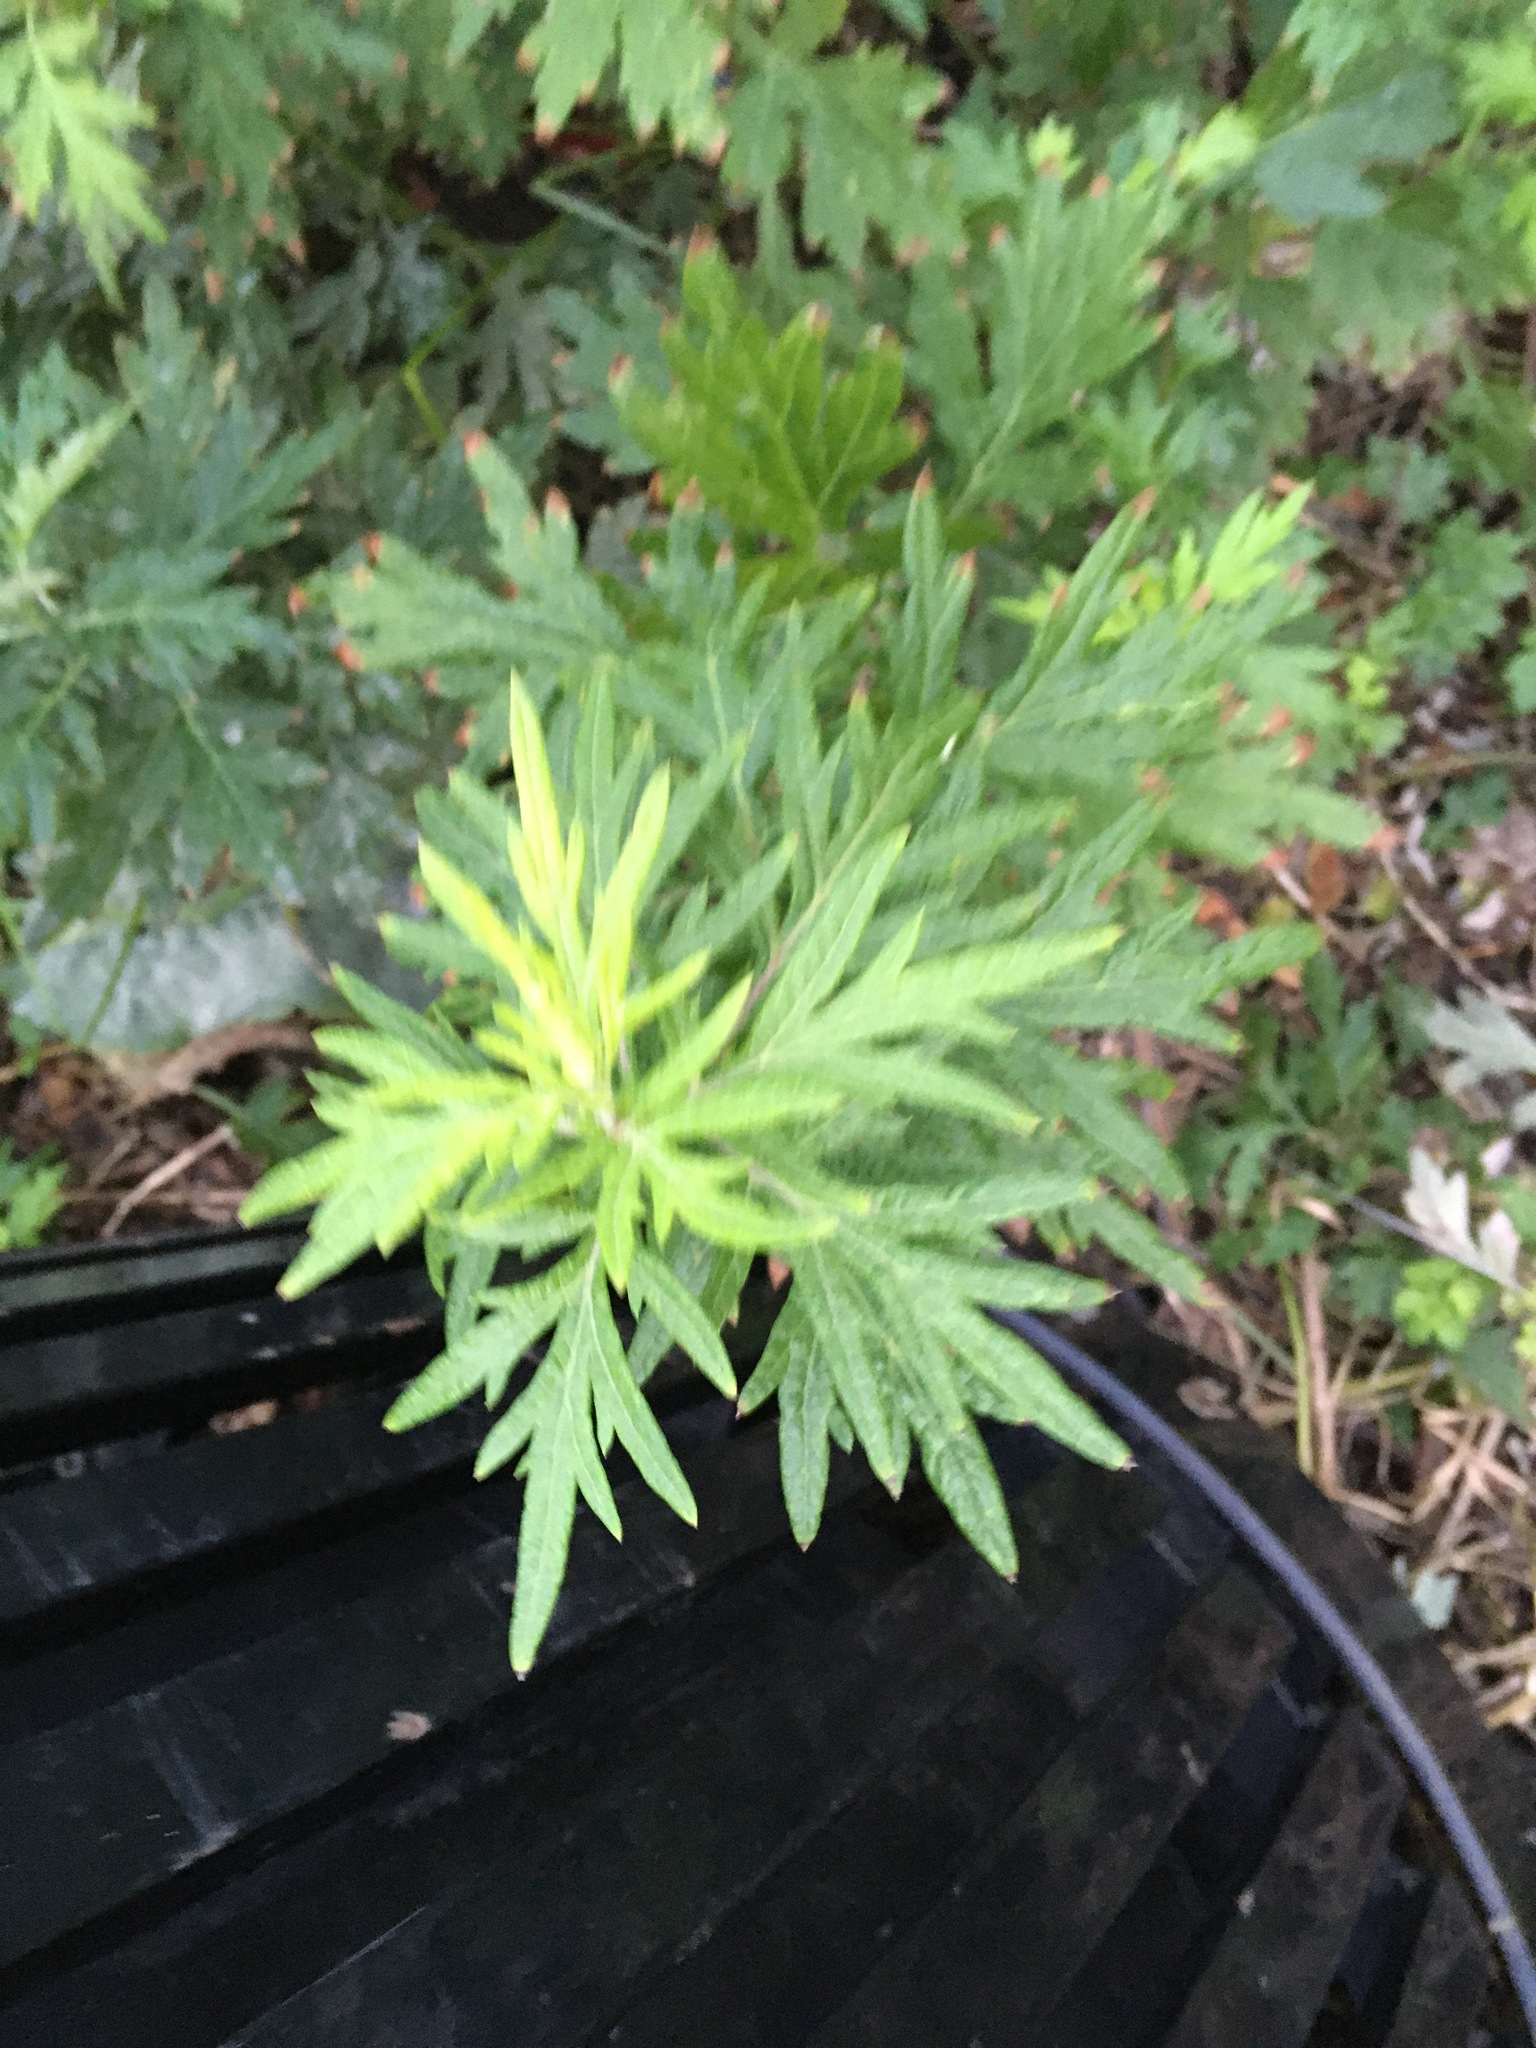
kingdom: Plantae
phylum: Tracheophyta
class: Magnoliopsida
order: Asterales
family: Asteraceae
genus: Artemisia
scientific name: Artemisia vulgaris
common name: Mugwort
